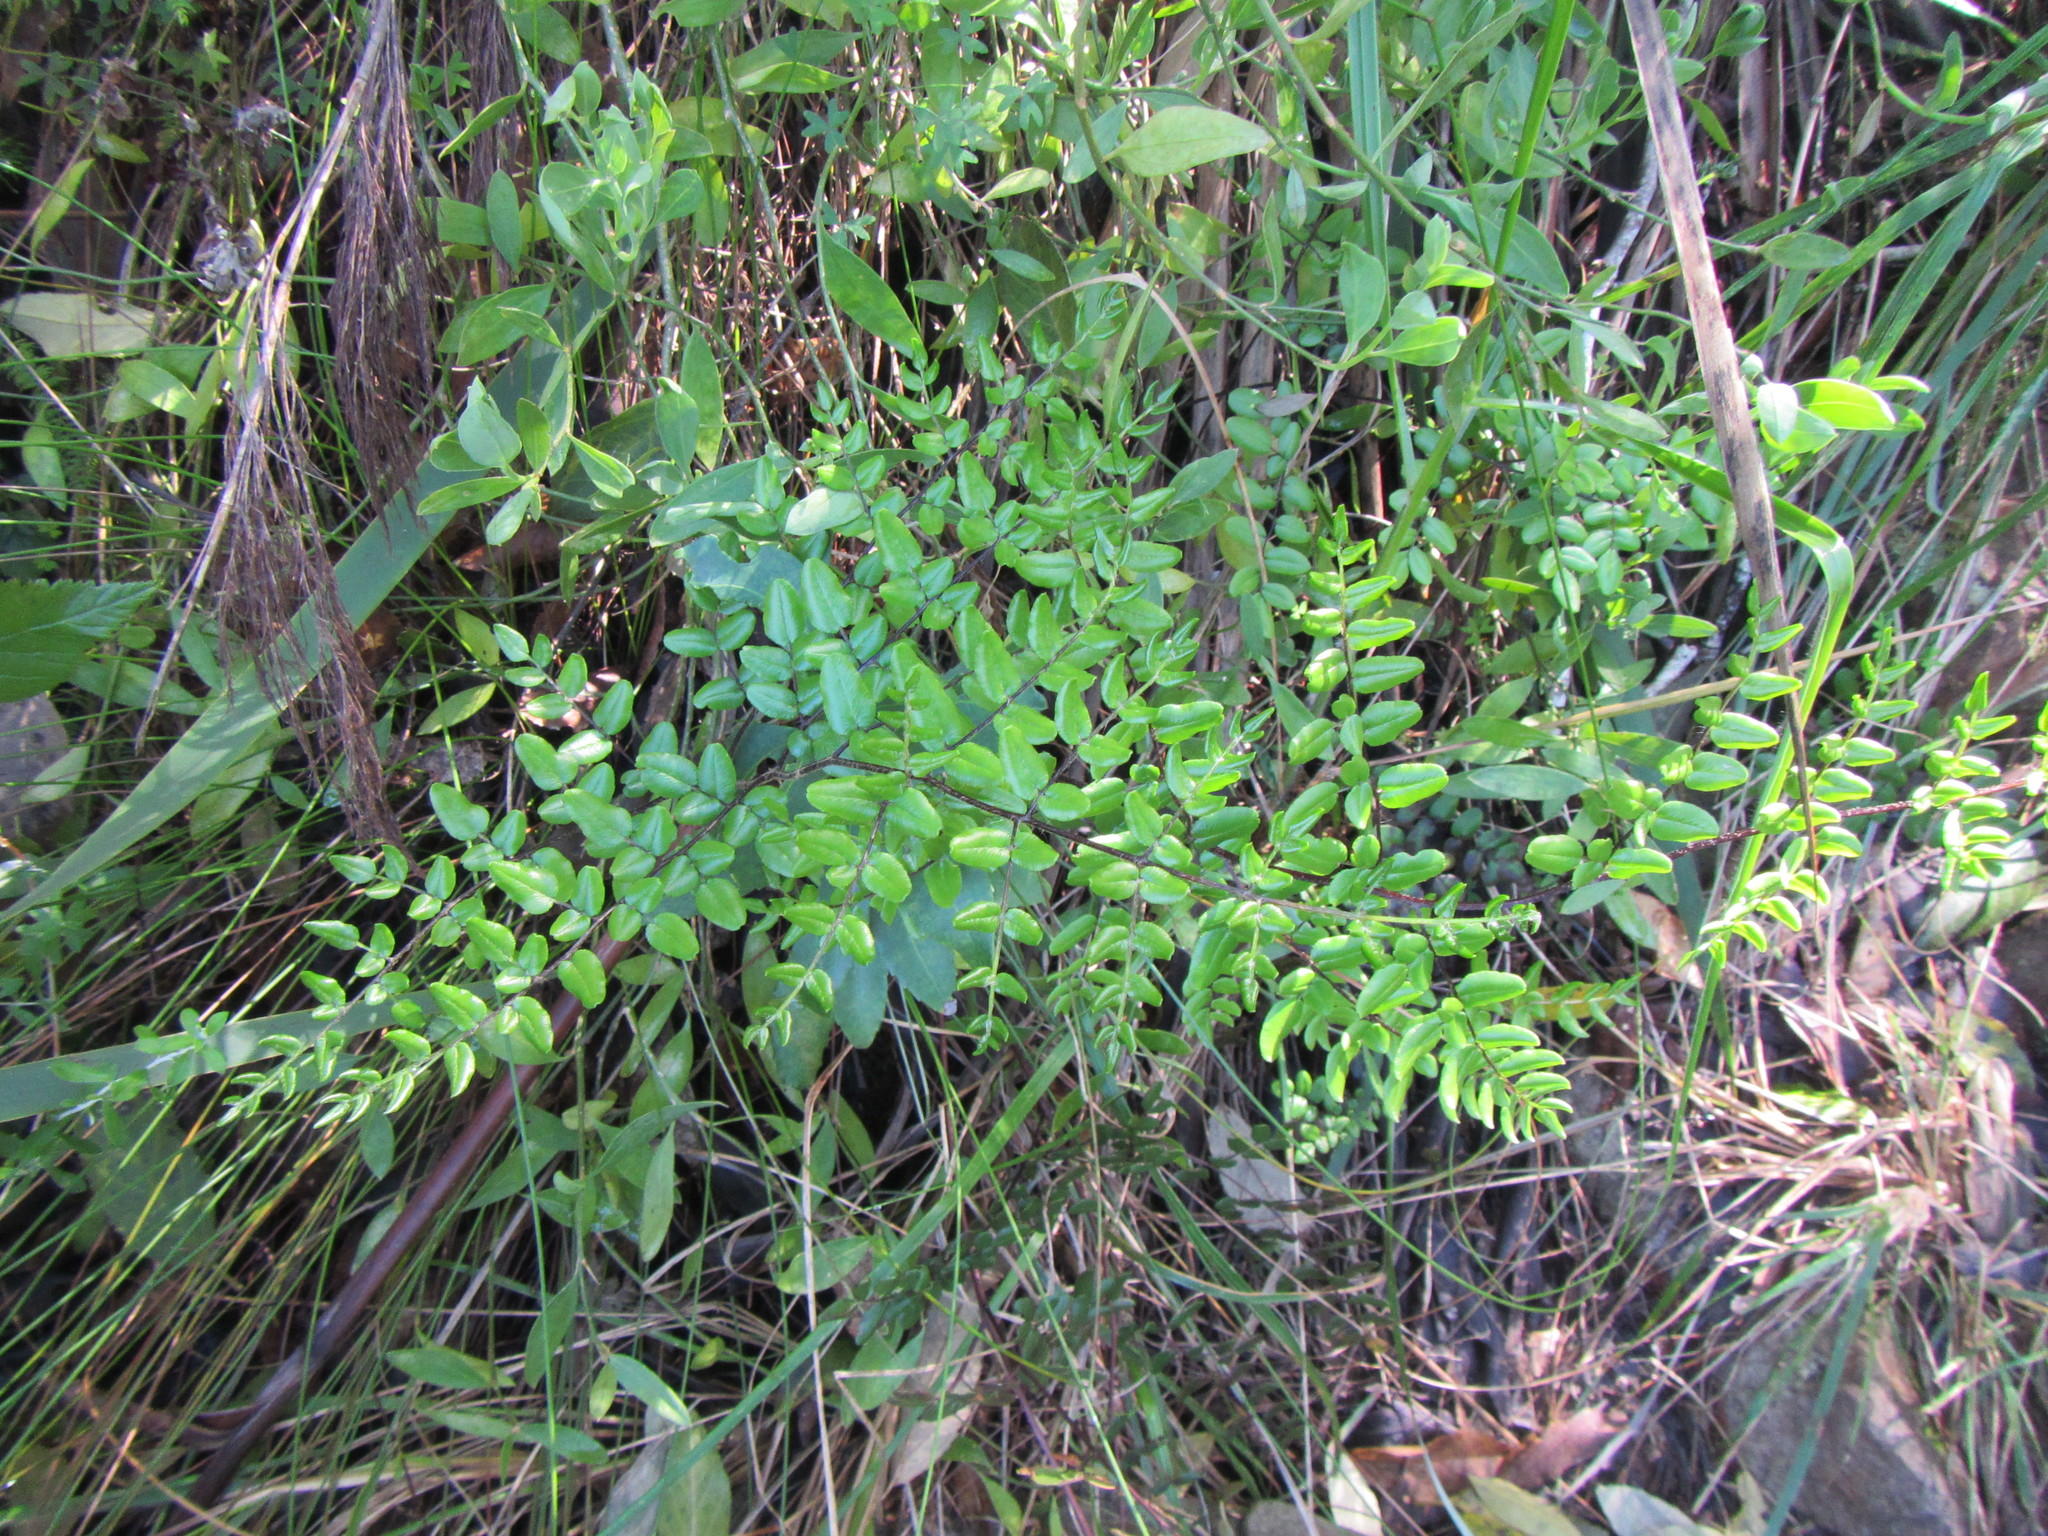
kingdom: Plantae
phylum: Tracheophyta
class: Polypodiopsida
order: Polypodiales
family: Pteridaceae
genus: Pellaea
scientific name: Pellaea pteroides
